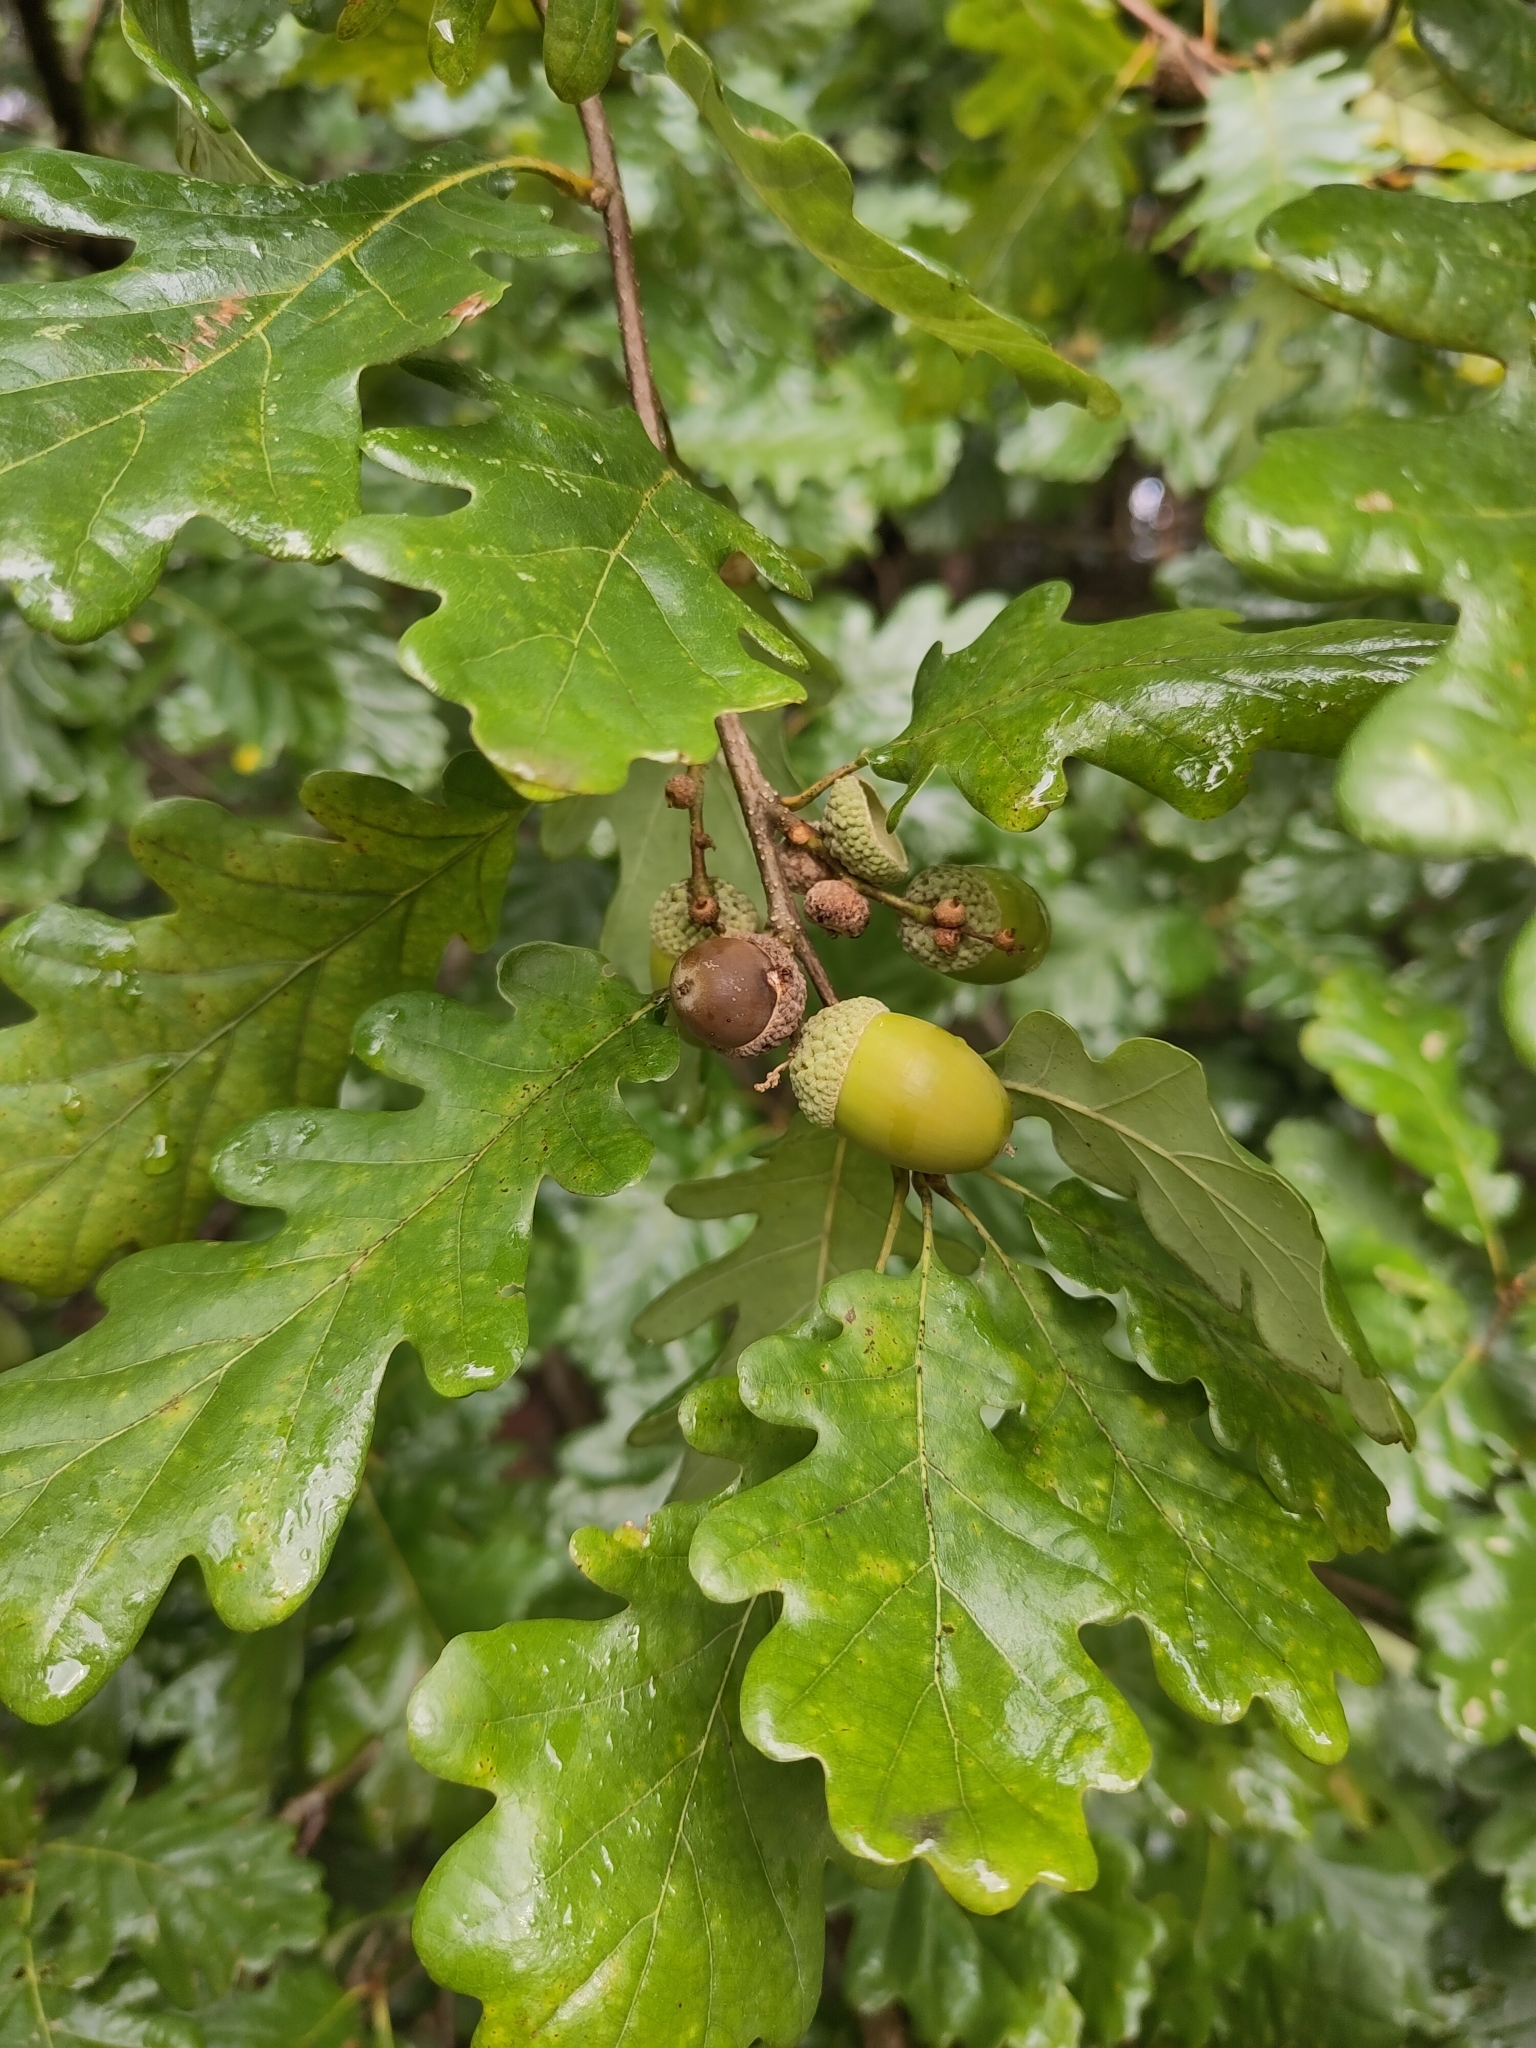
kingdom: Plantae
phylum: Tracheophyta
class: Magnoliopsida
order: Fagales
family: Fagaceae
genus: Quercus
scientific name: Quercus petraea
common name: Sessile oak
